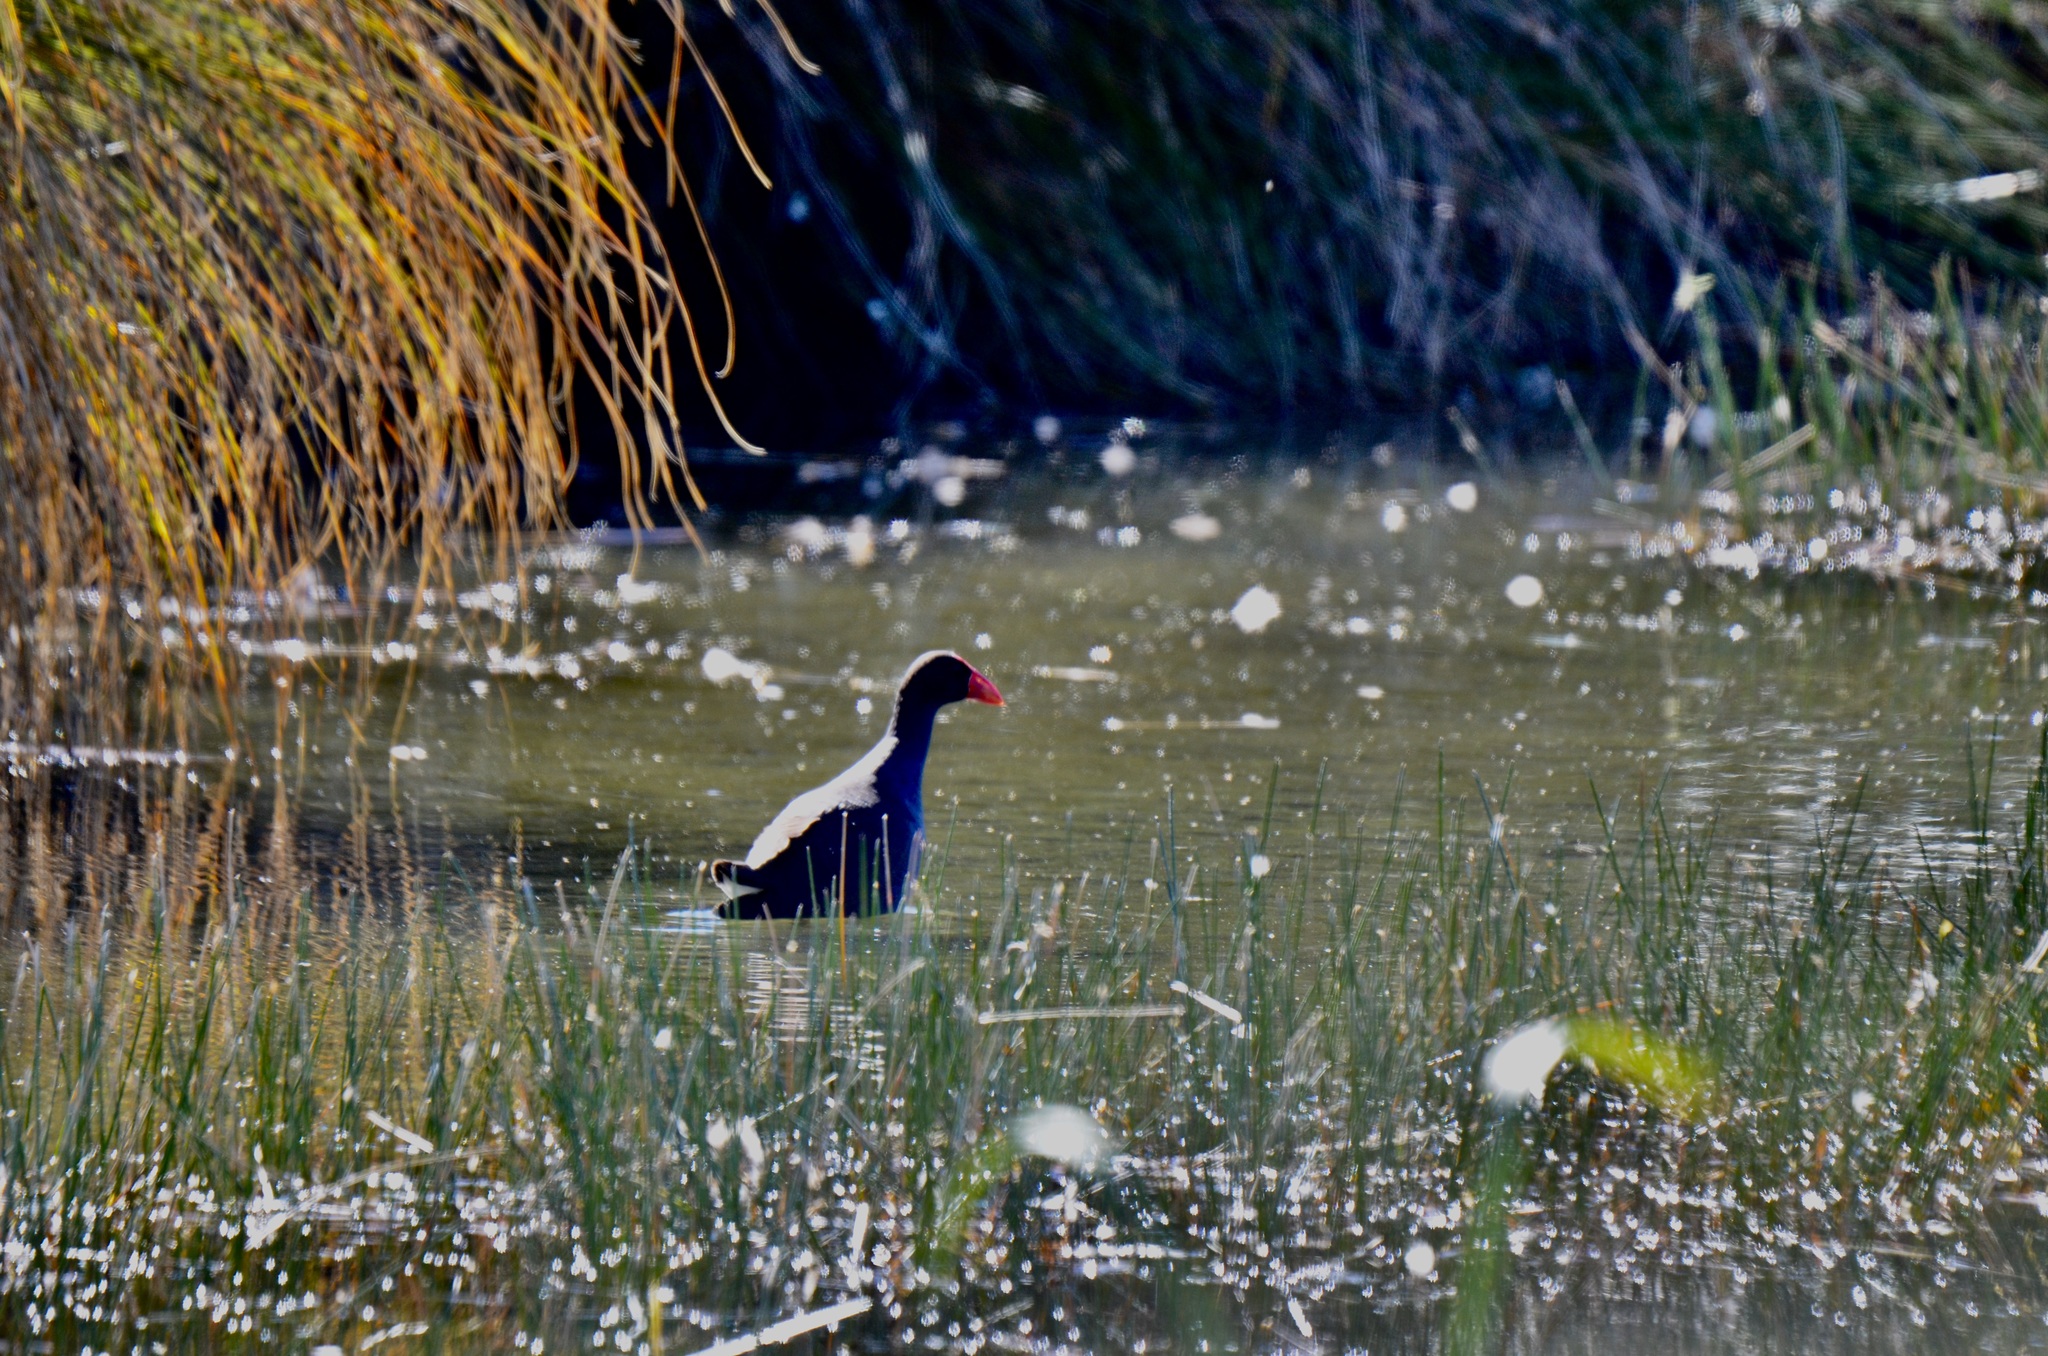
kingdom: Animalia
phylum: Chordata
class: Aves
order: Gruiformes
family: Rallidae
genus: Porphyrio
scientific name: Porphyrio melanotus
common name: Australasian swamphen
